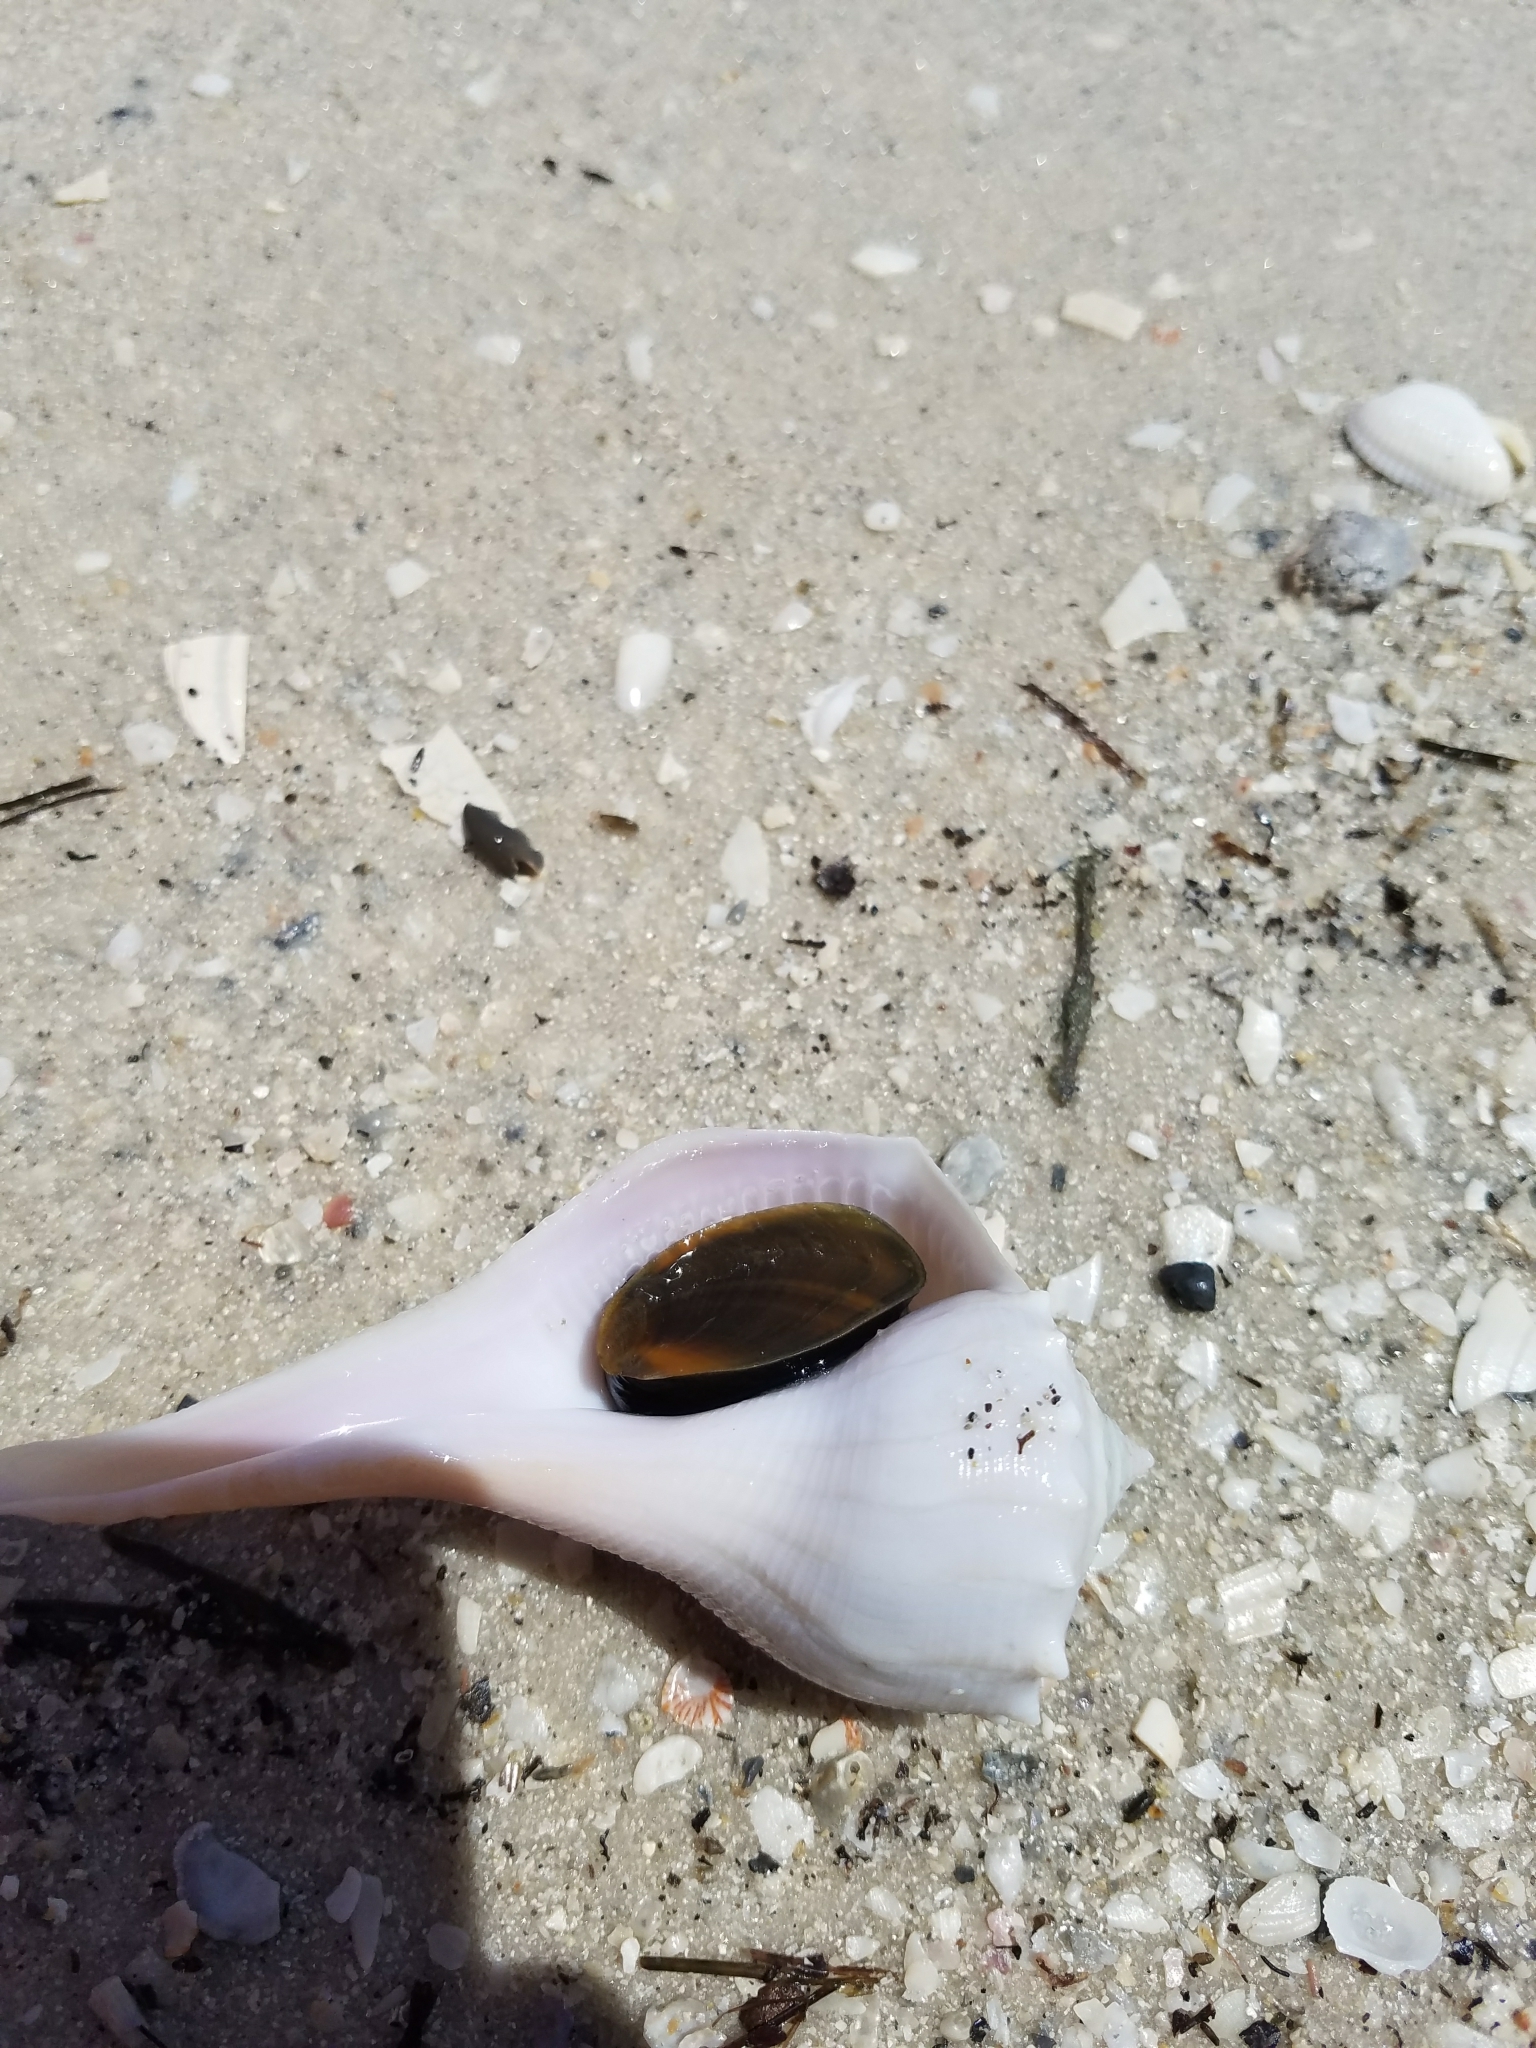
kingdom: Animalia
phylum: Mollusca
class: Gastropoda
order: Neogastropoda
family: Busyconidae
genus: Sinistrofulgur
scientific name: Sinistrofulgur sinistrum
